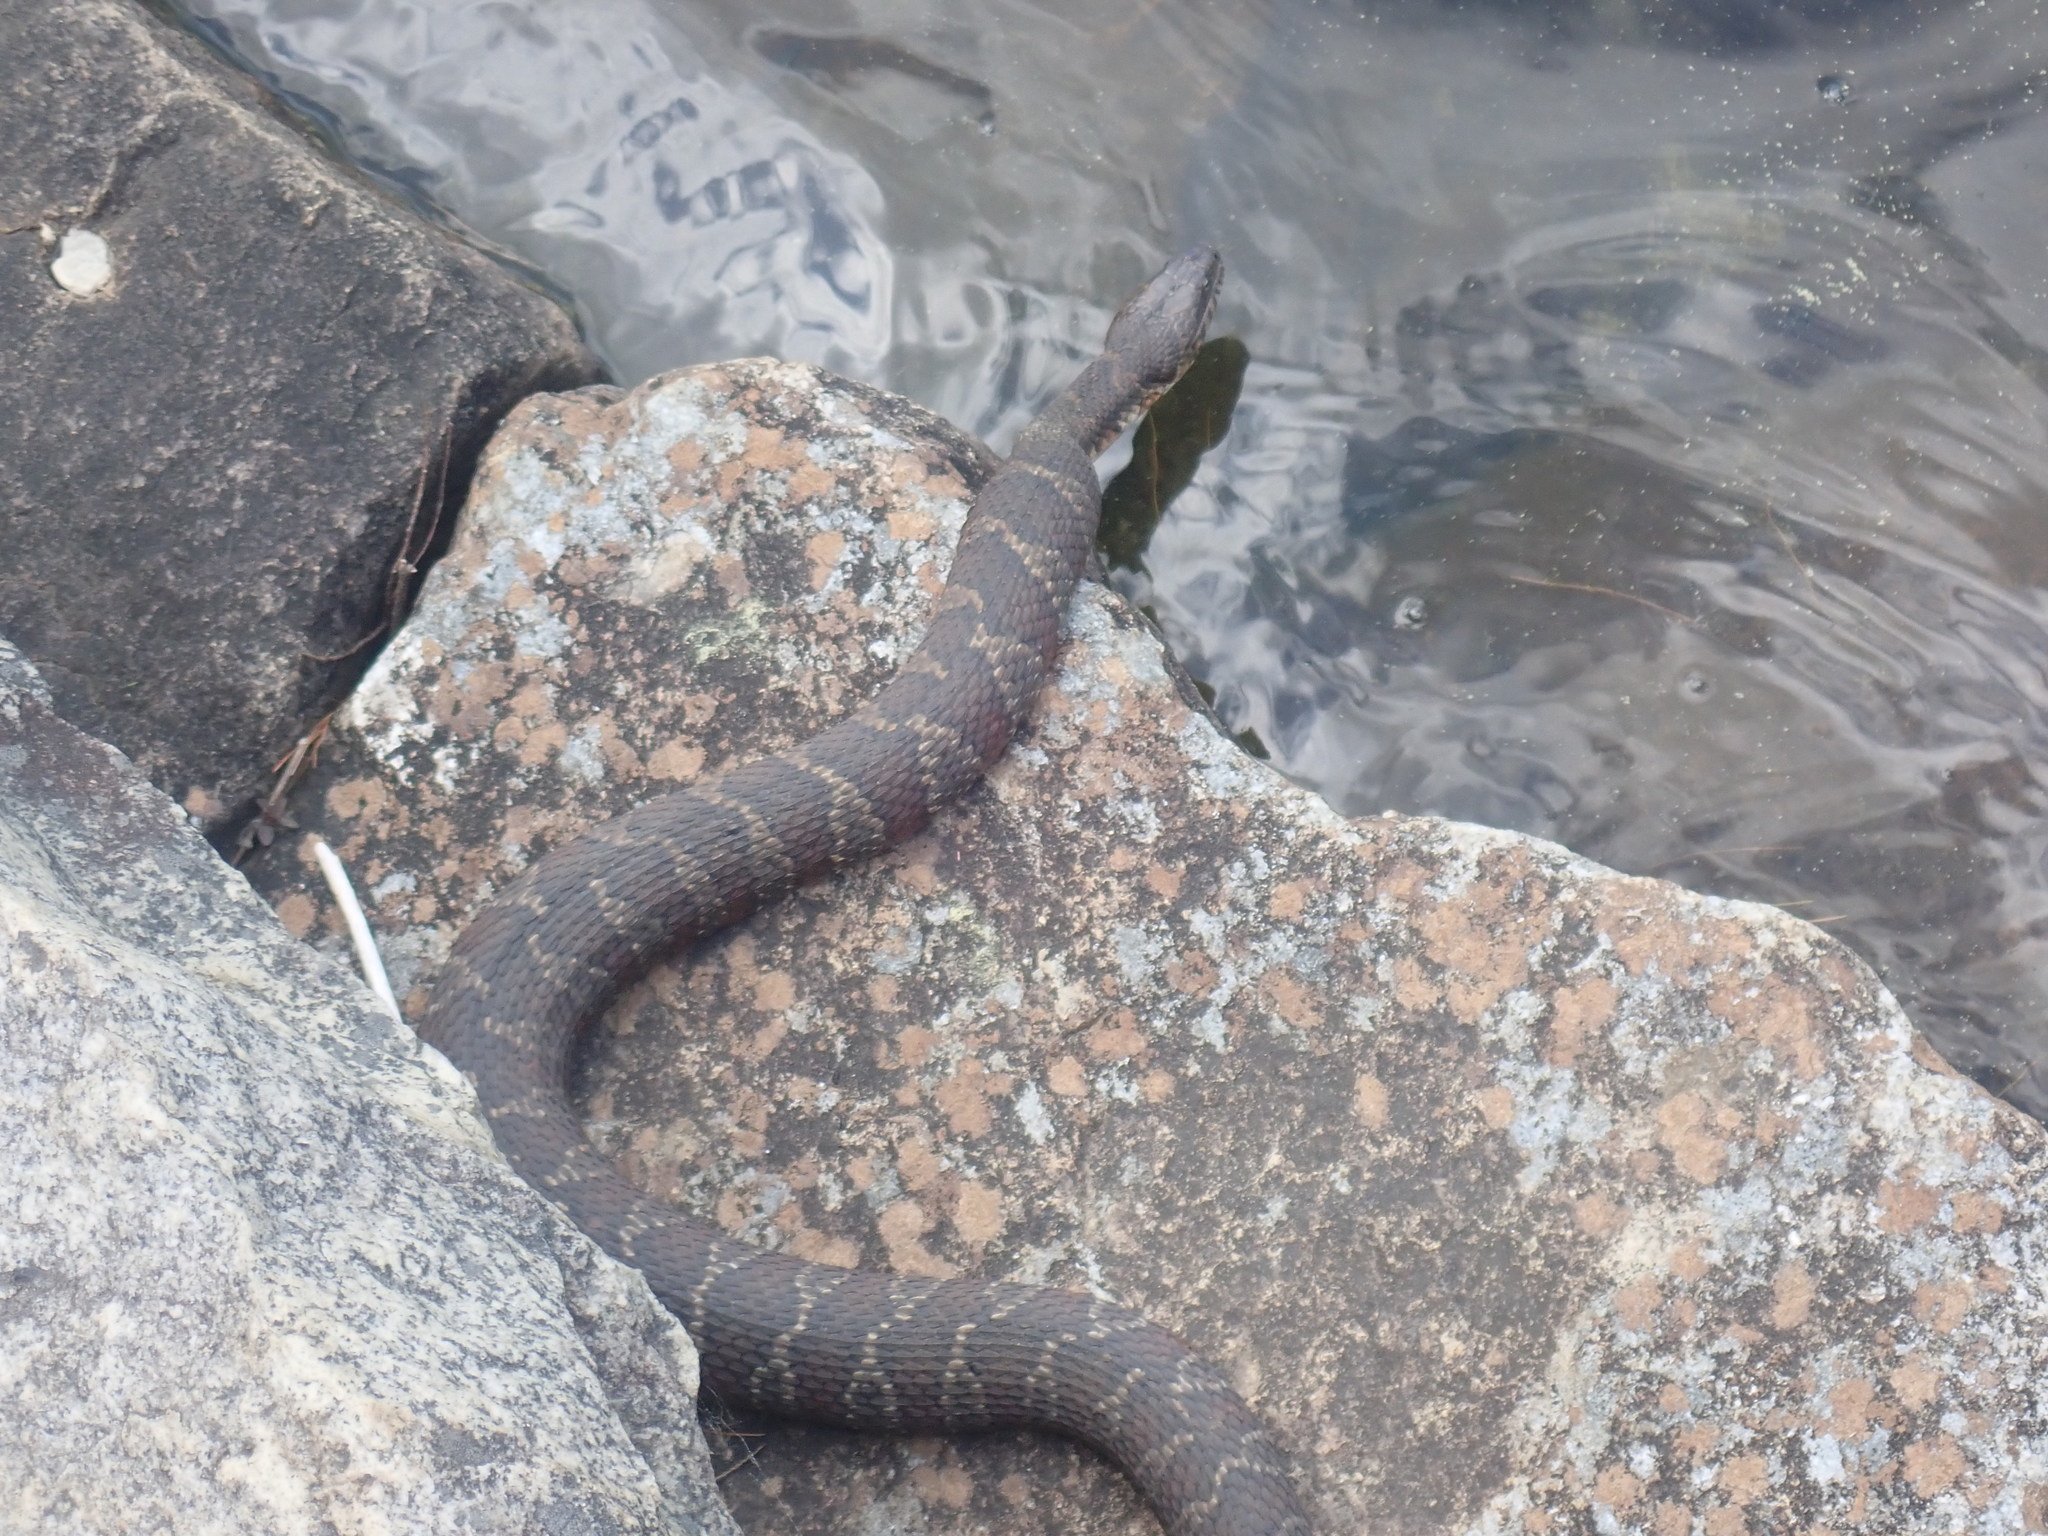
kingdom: Animalia
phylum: Chordata
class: Squamata
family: Colubridae
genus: Nerodia
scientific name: Nerodia sipedon
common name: Northern water snake
